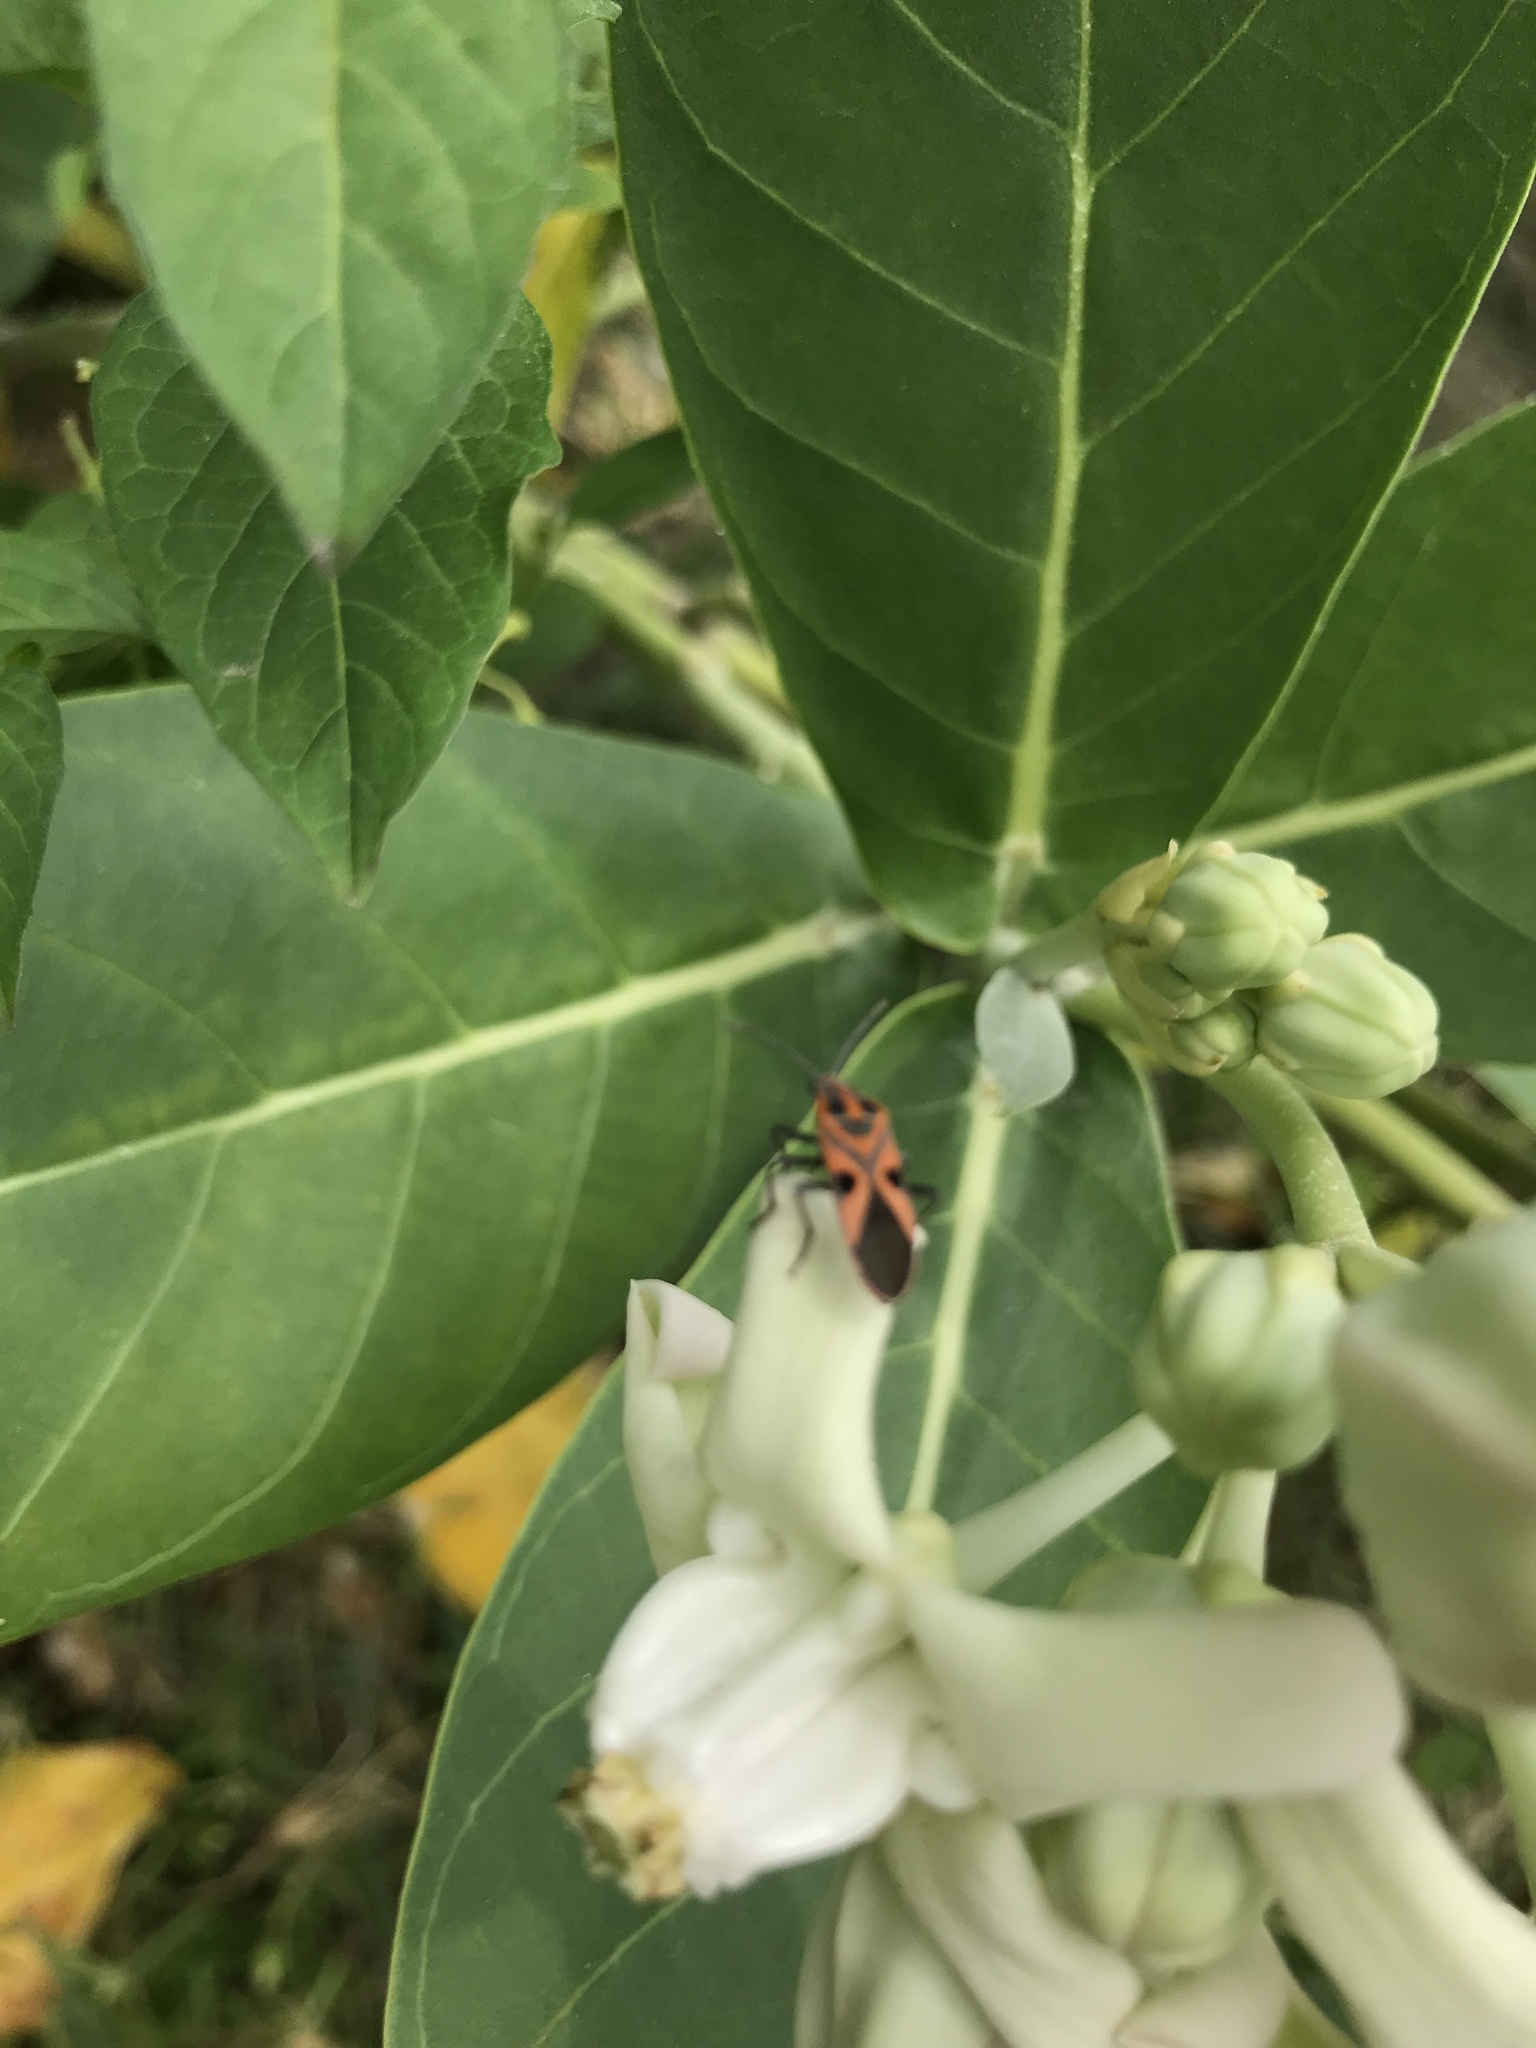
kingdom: Animalia
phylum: Arthropoda
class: Insecta
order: Hemiptera
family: Lygaeidae
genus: Spilostethus
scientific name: Spilostethus hospes
